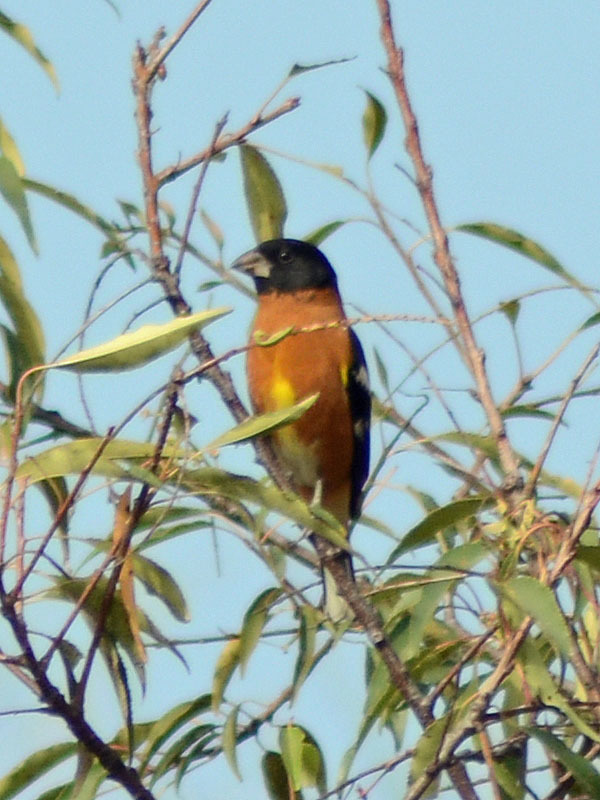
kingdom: Animalia
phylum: Chordata
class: Aves
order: Passeriformes
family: Cardinalidae
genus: Pheucticus
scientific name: Pheucticus melanocephalus
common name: Black-headed grosbeak
